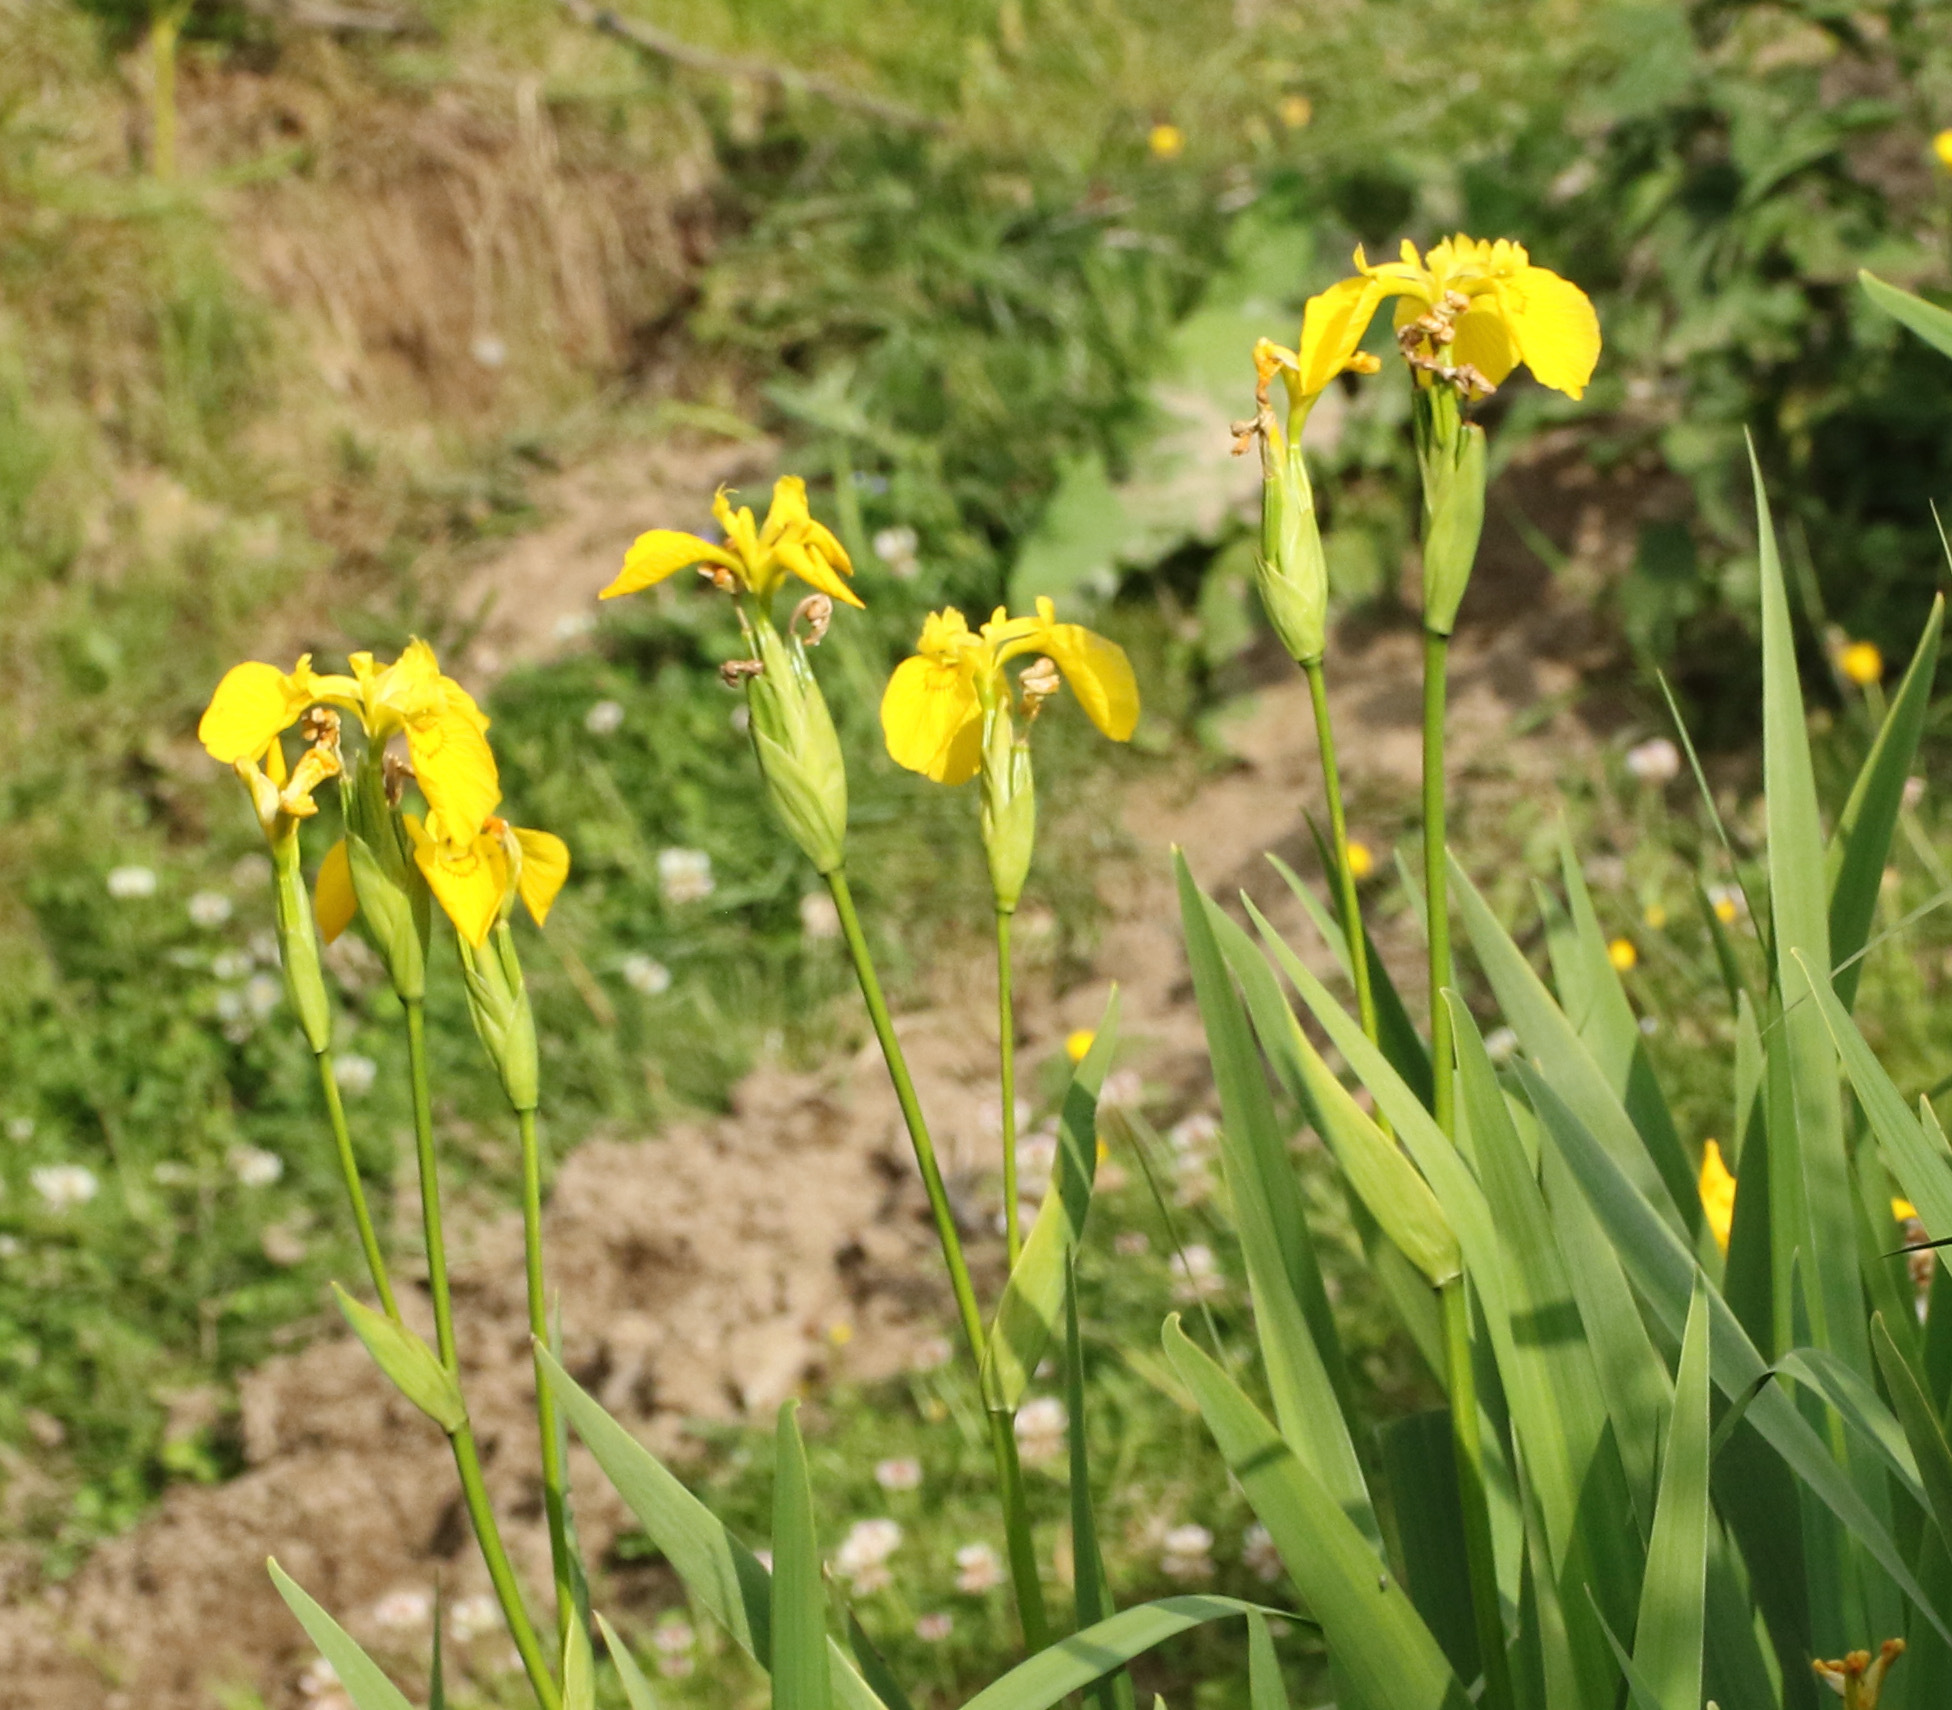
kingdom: Plantae
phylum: Tracheophyta
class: Liliopsida
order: Asparagales
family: Iridaceae
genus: Iris
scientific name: Iris pseudacorus
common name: Yellow flag
